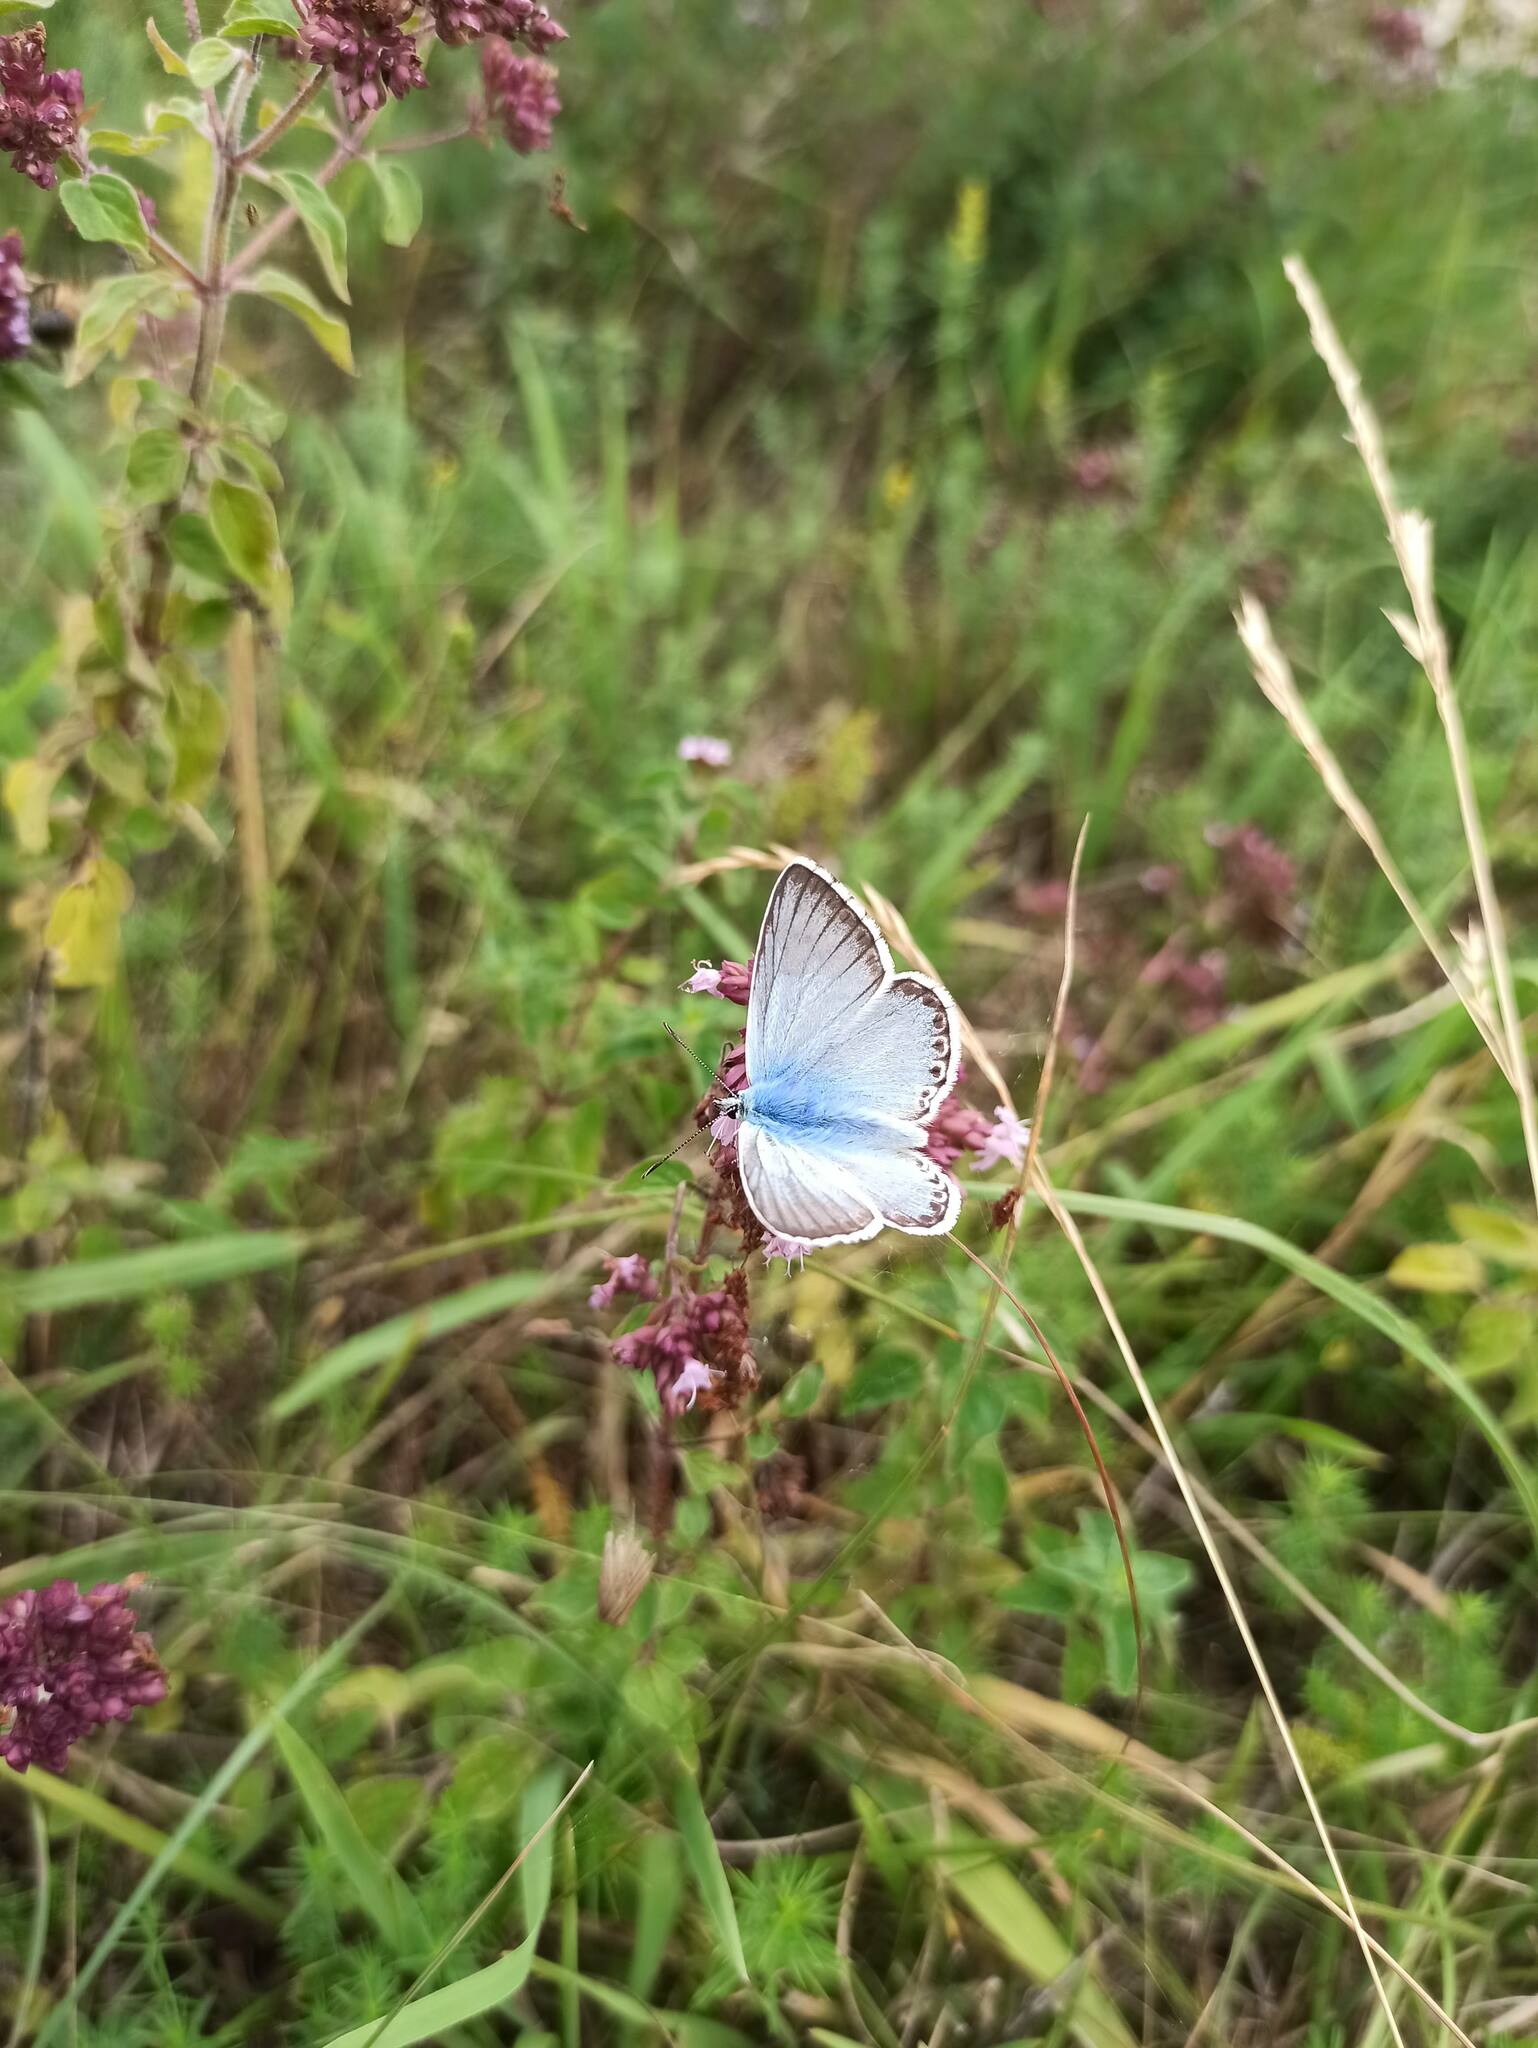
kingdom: Animalia
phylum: Arthropoda
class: Insecta
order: Lepidoptera
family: Lycaenidae
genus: Lysandra
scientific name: Lysandra coridon
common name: Chalkhill blue
